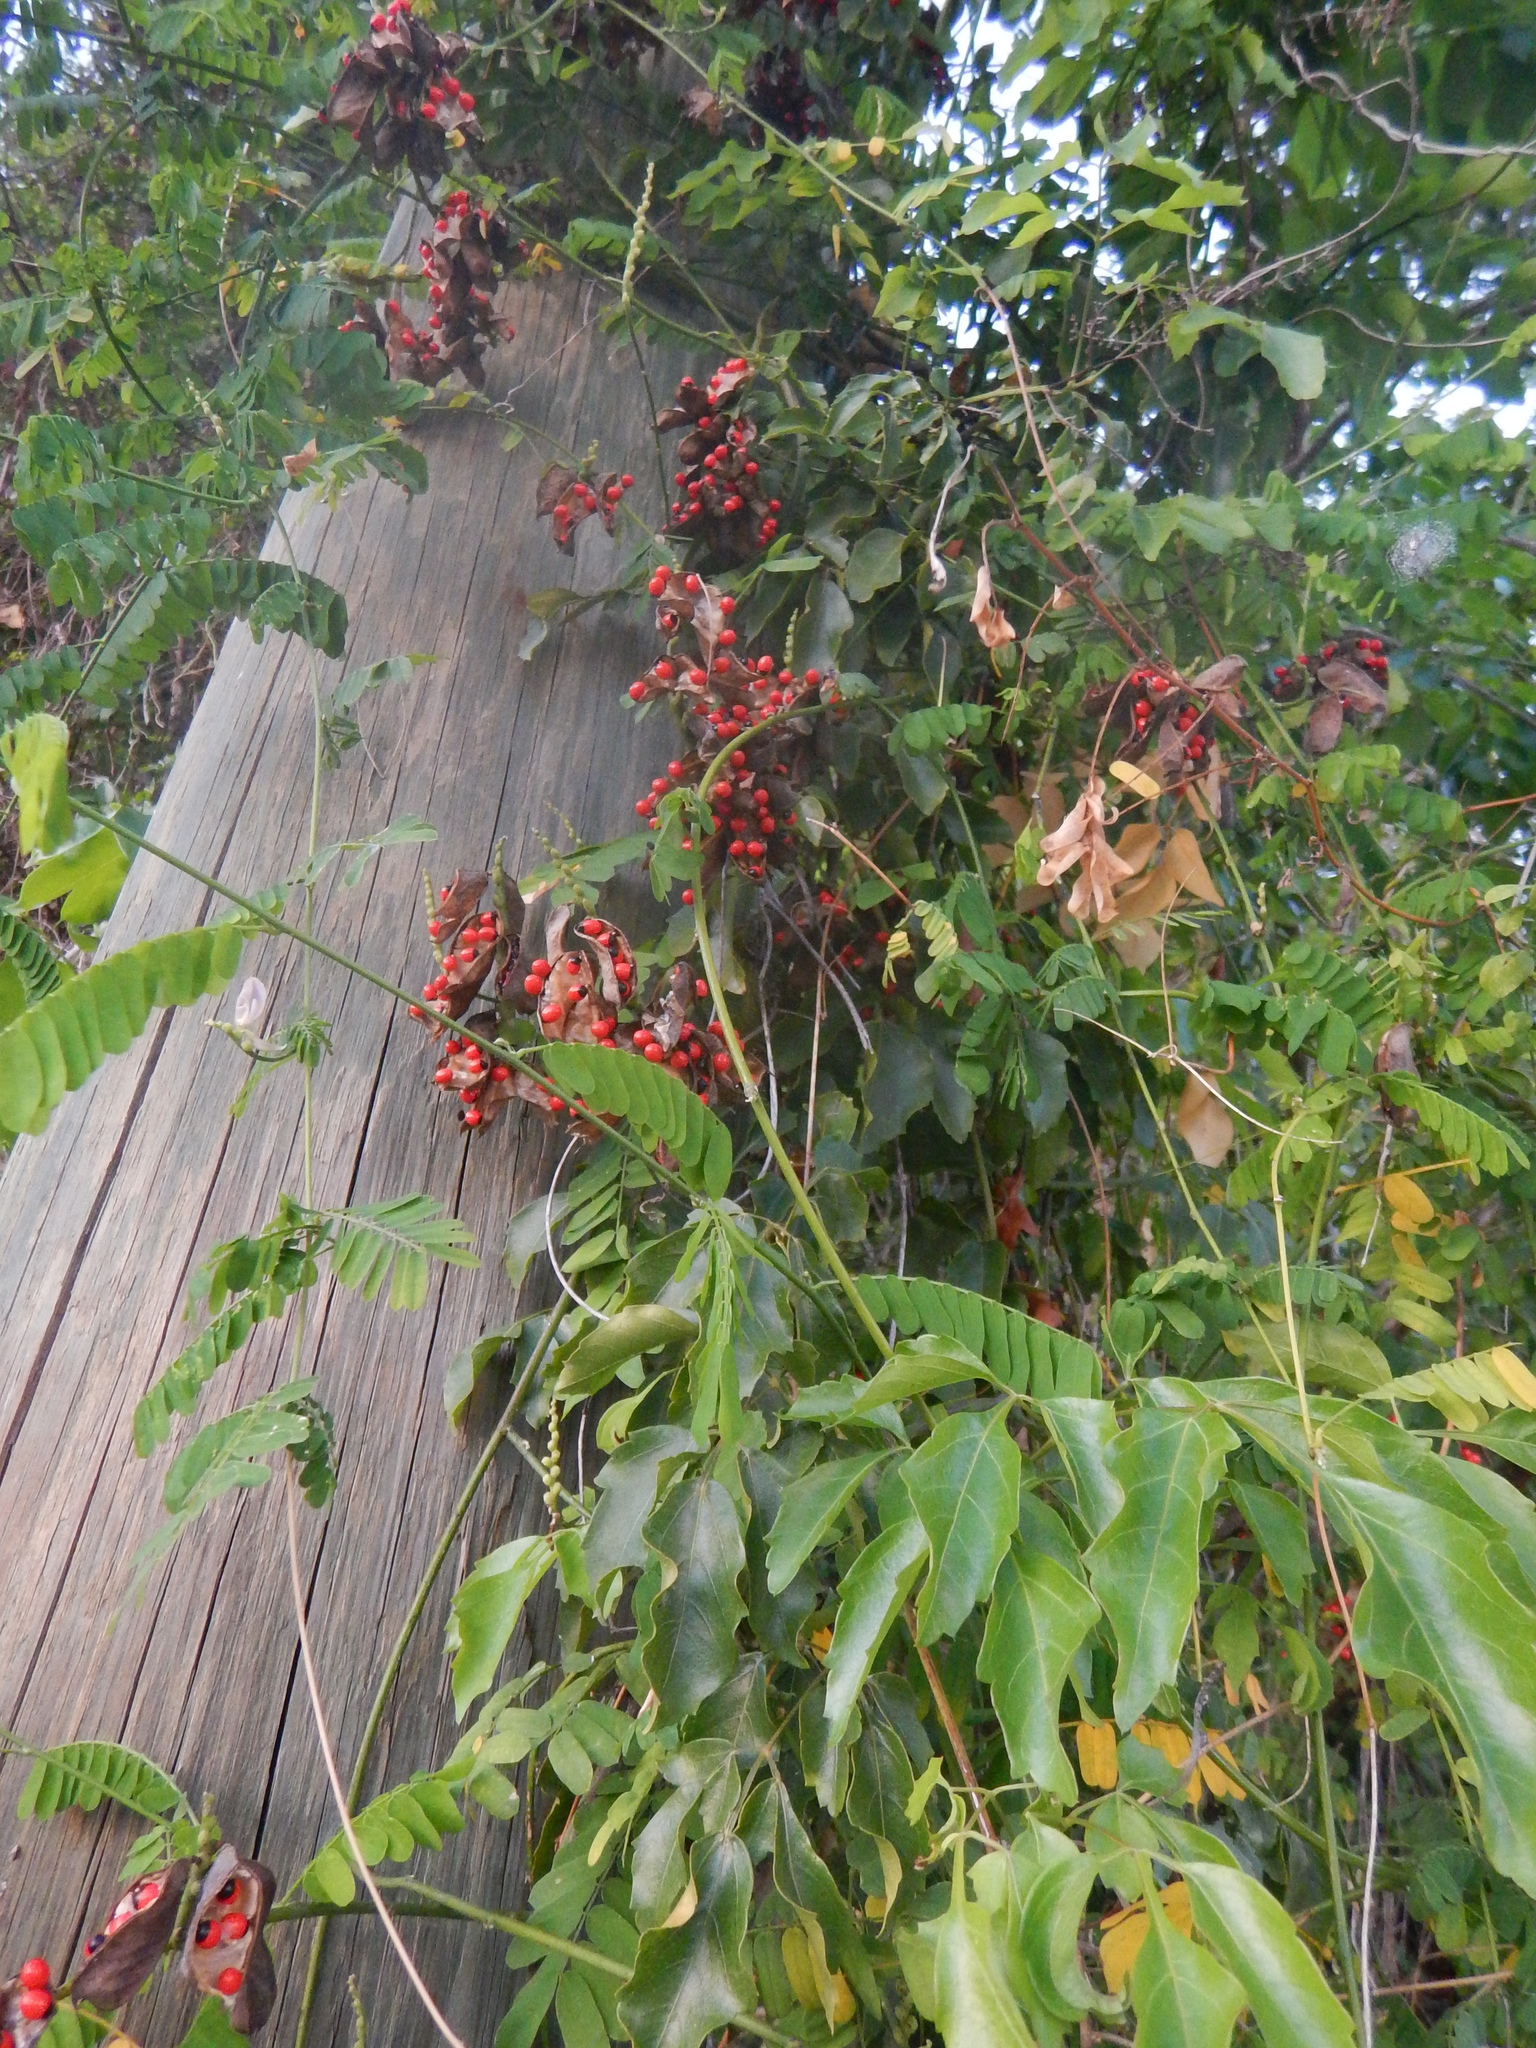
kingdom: Plantae
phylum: Tracheophyta
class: Magnoliopsida
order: Fabales
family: Fabaceae
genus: Abrus
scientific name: Abrus precatorius
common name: Rosarypea
